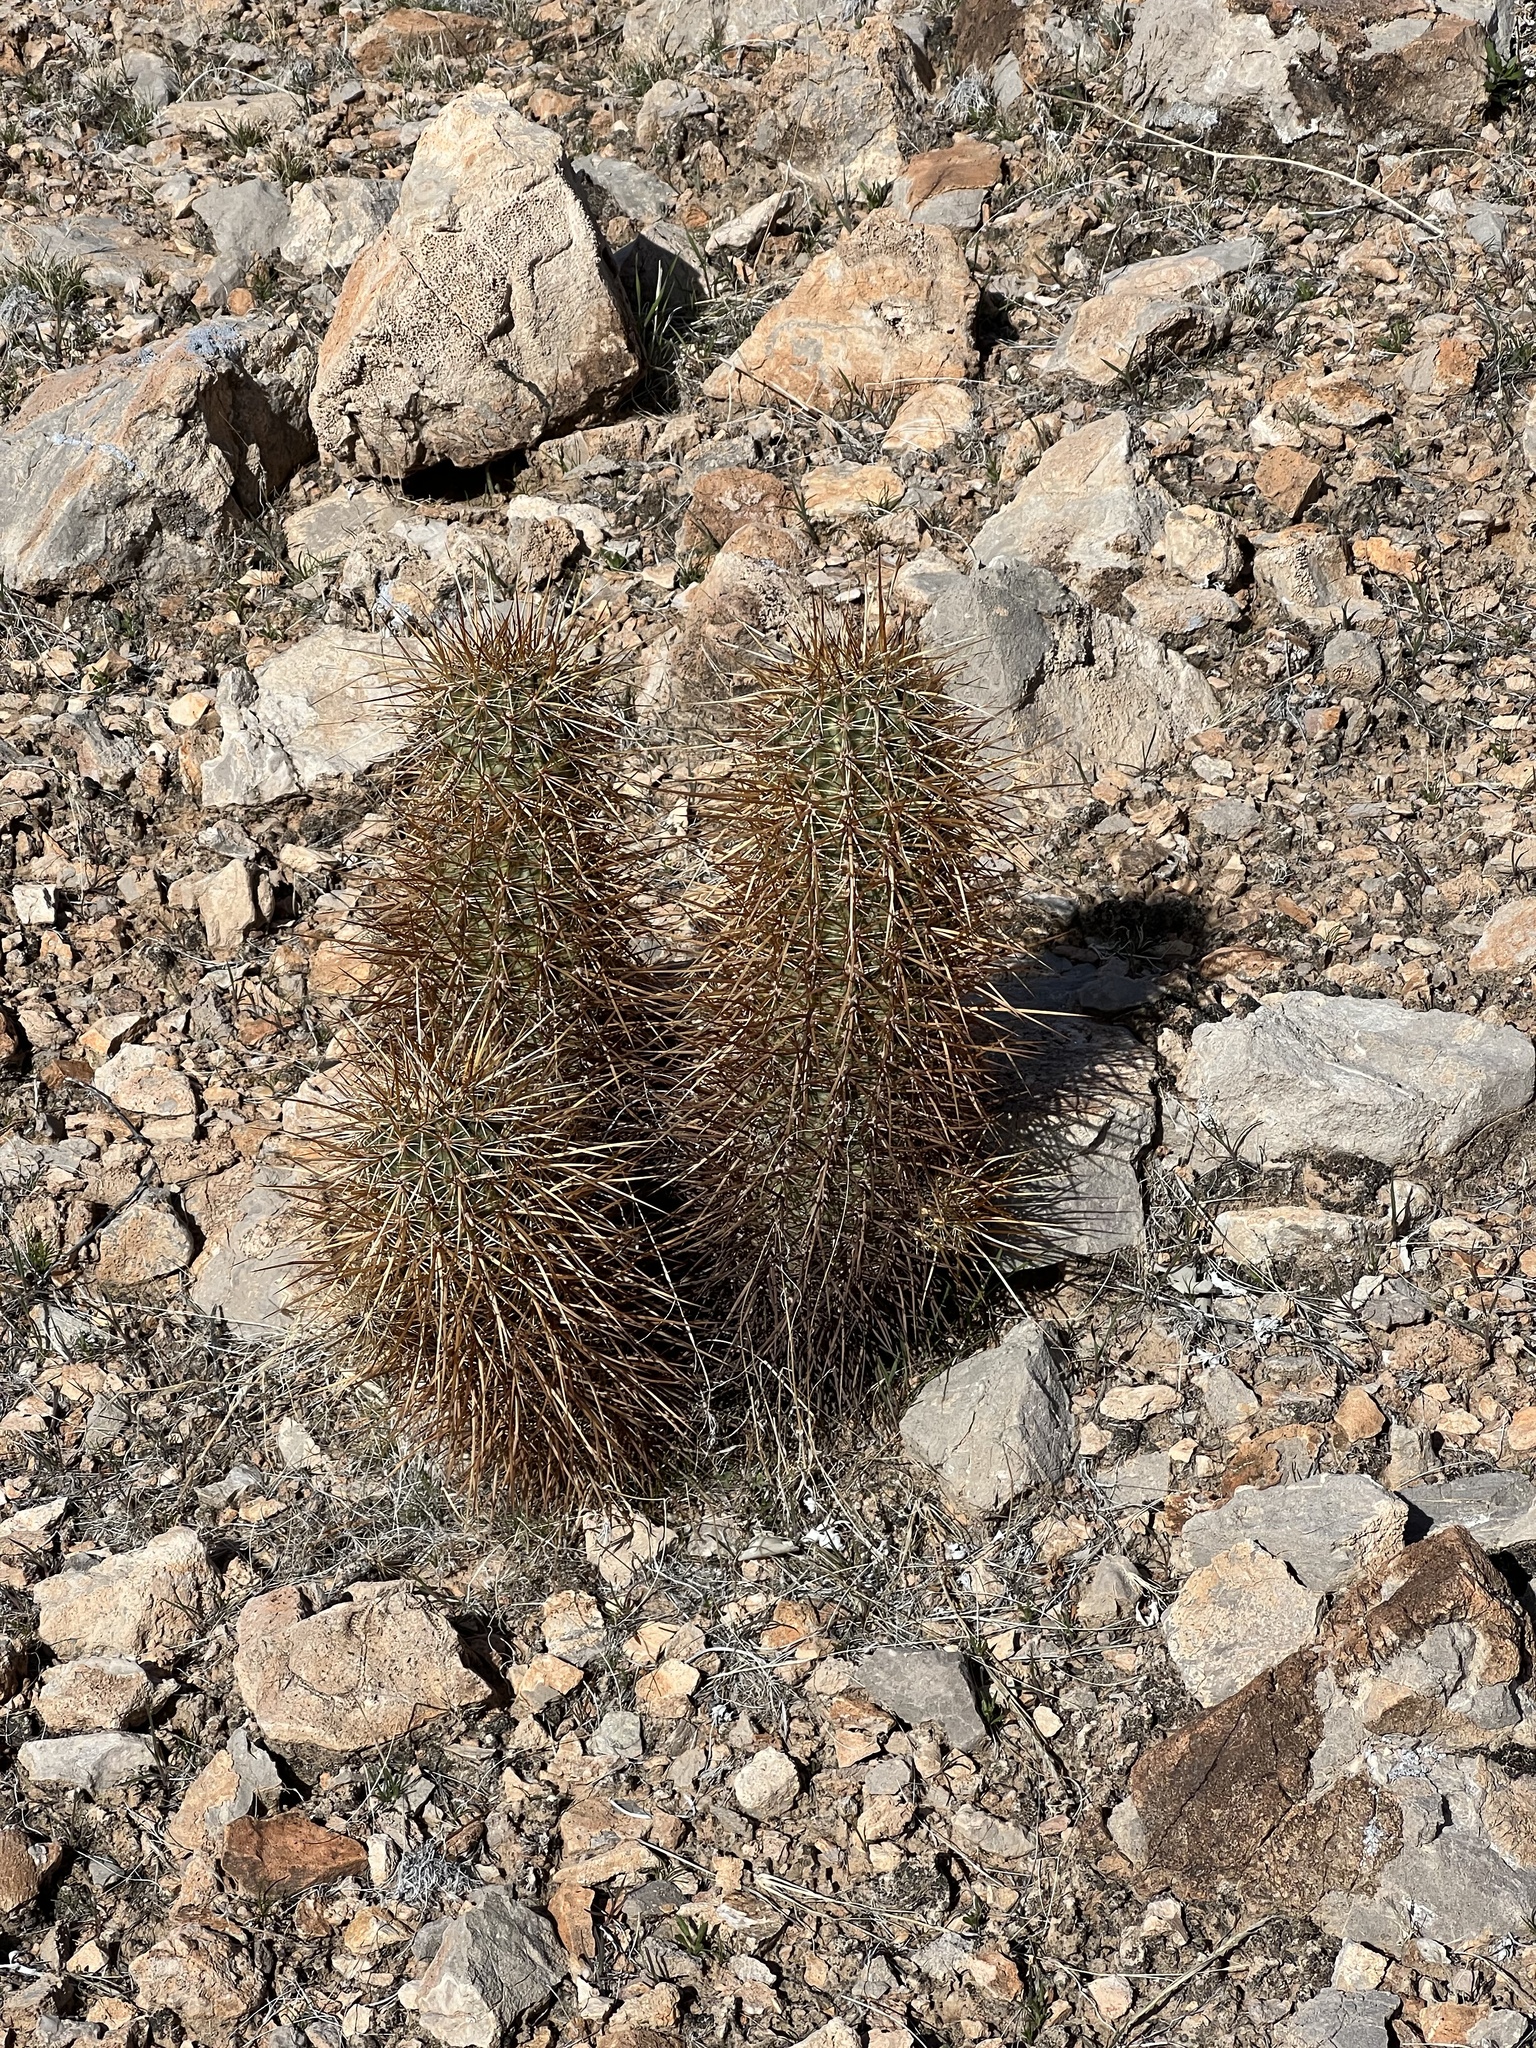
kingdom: Plantae
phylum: Tracheophyta
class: Magnoliopsida
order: Caryophyllales
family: Cactaceae
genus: Echinocereus
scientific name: Echinocereus engelmannii
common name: Engelmann's hedgehog cactus
